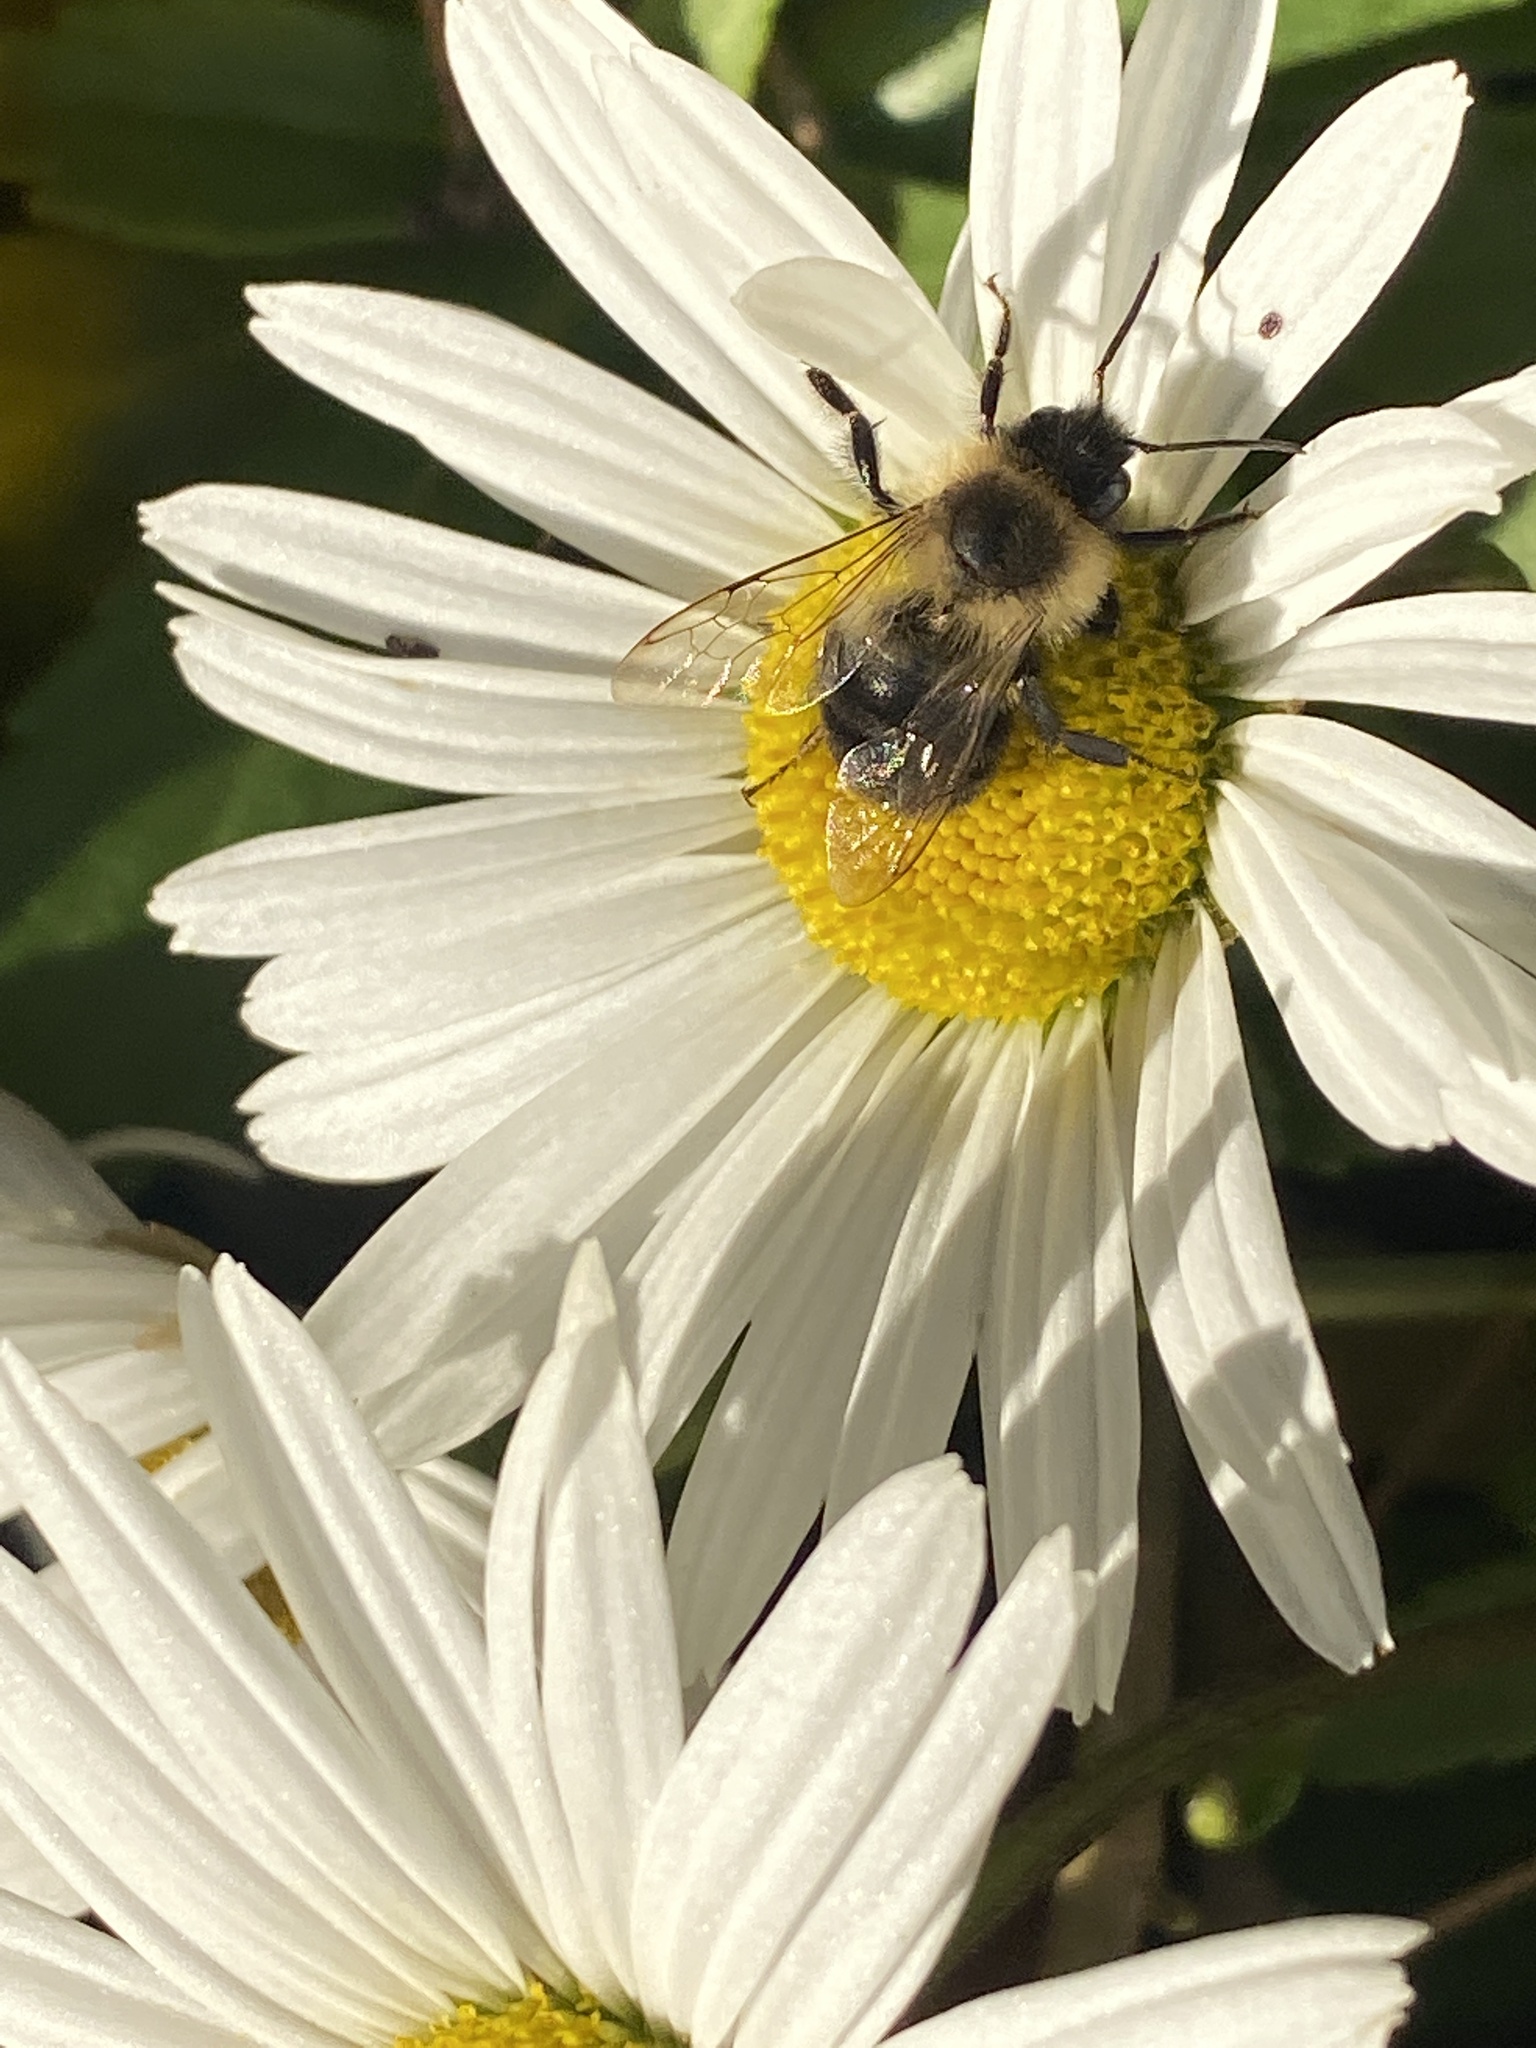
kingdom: Animalia
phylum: Arthropoda
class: Insecta
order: Hymenoptera
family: Apidae
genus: Bombus
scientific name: Bombus impatiens
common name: Common eastern bumble bee
